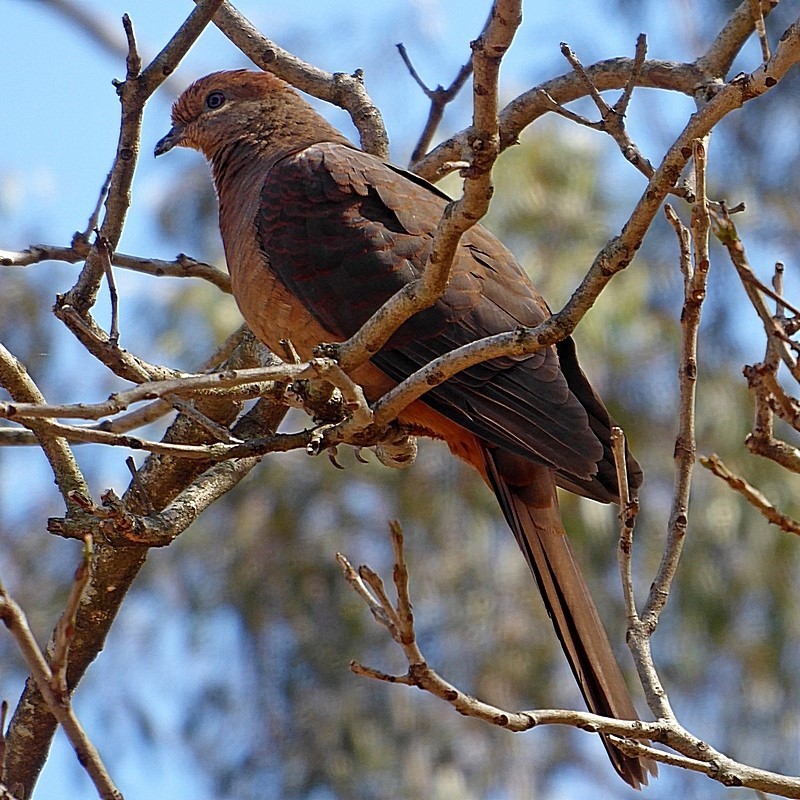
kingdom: Animalia
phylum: Chordata
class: Aves
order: Columbiformes
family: Columbidae
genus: Macropygia
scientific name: Macropygia phasianella
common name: Brown cuckoo-dove
